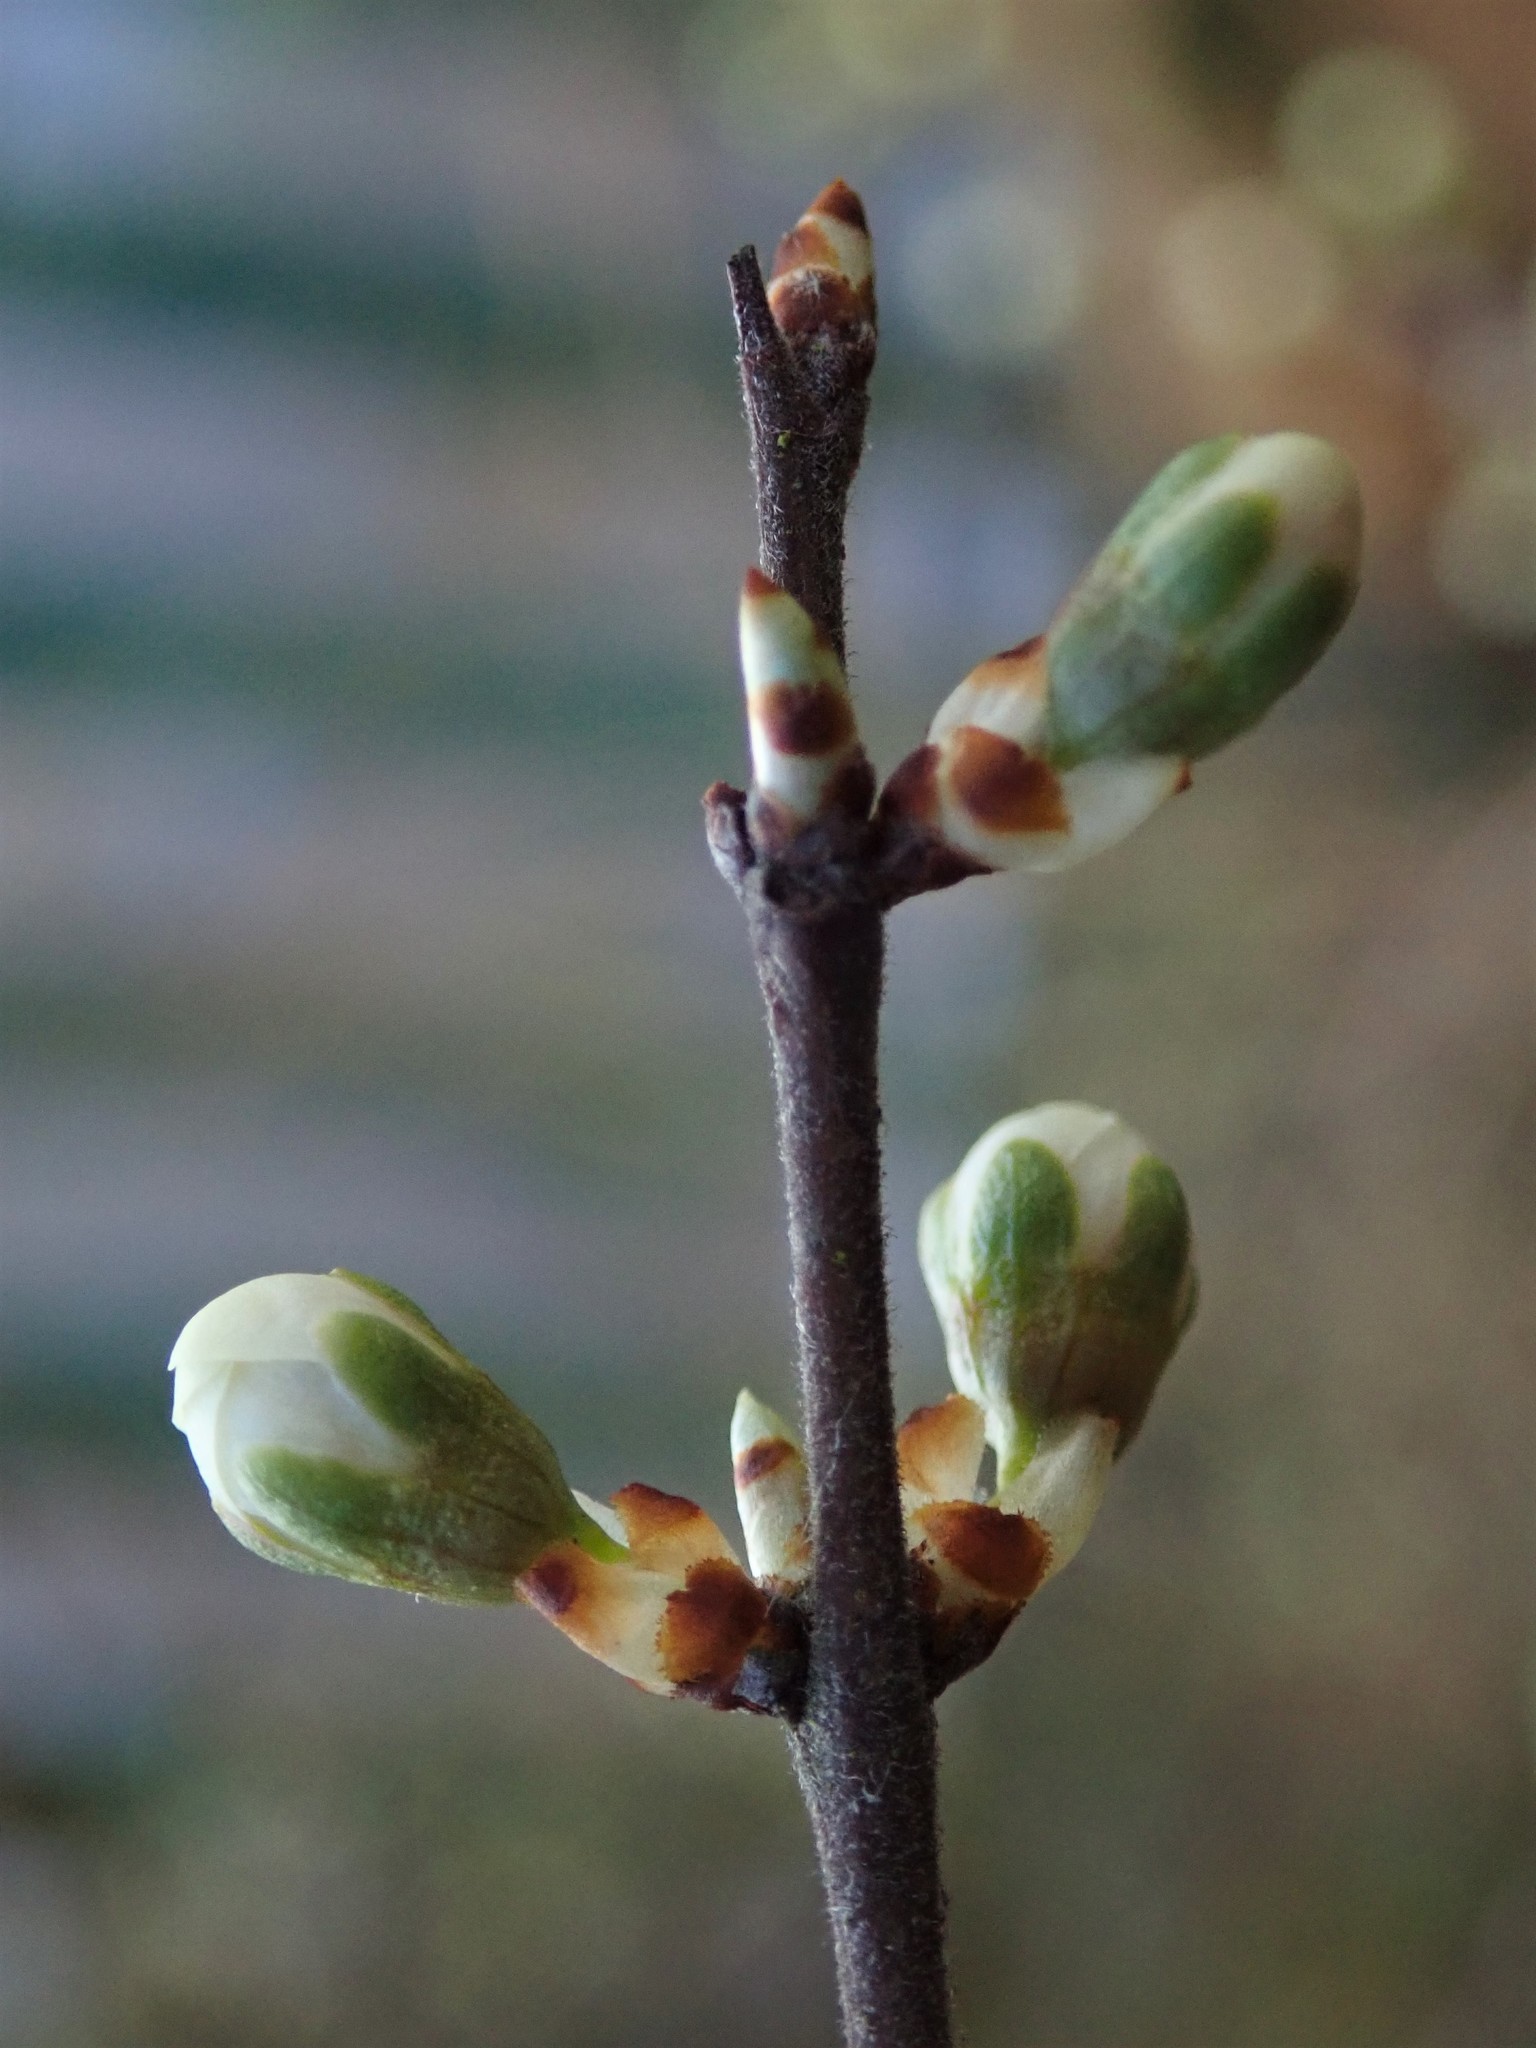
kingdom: Plantae
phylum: Tracheophyta
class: Magnoliopsida
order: Rosales
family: Rosaceae
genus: Prunus
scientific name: Prunus spinosa
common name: Blackthorn
